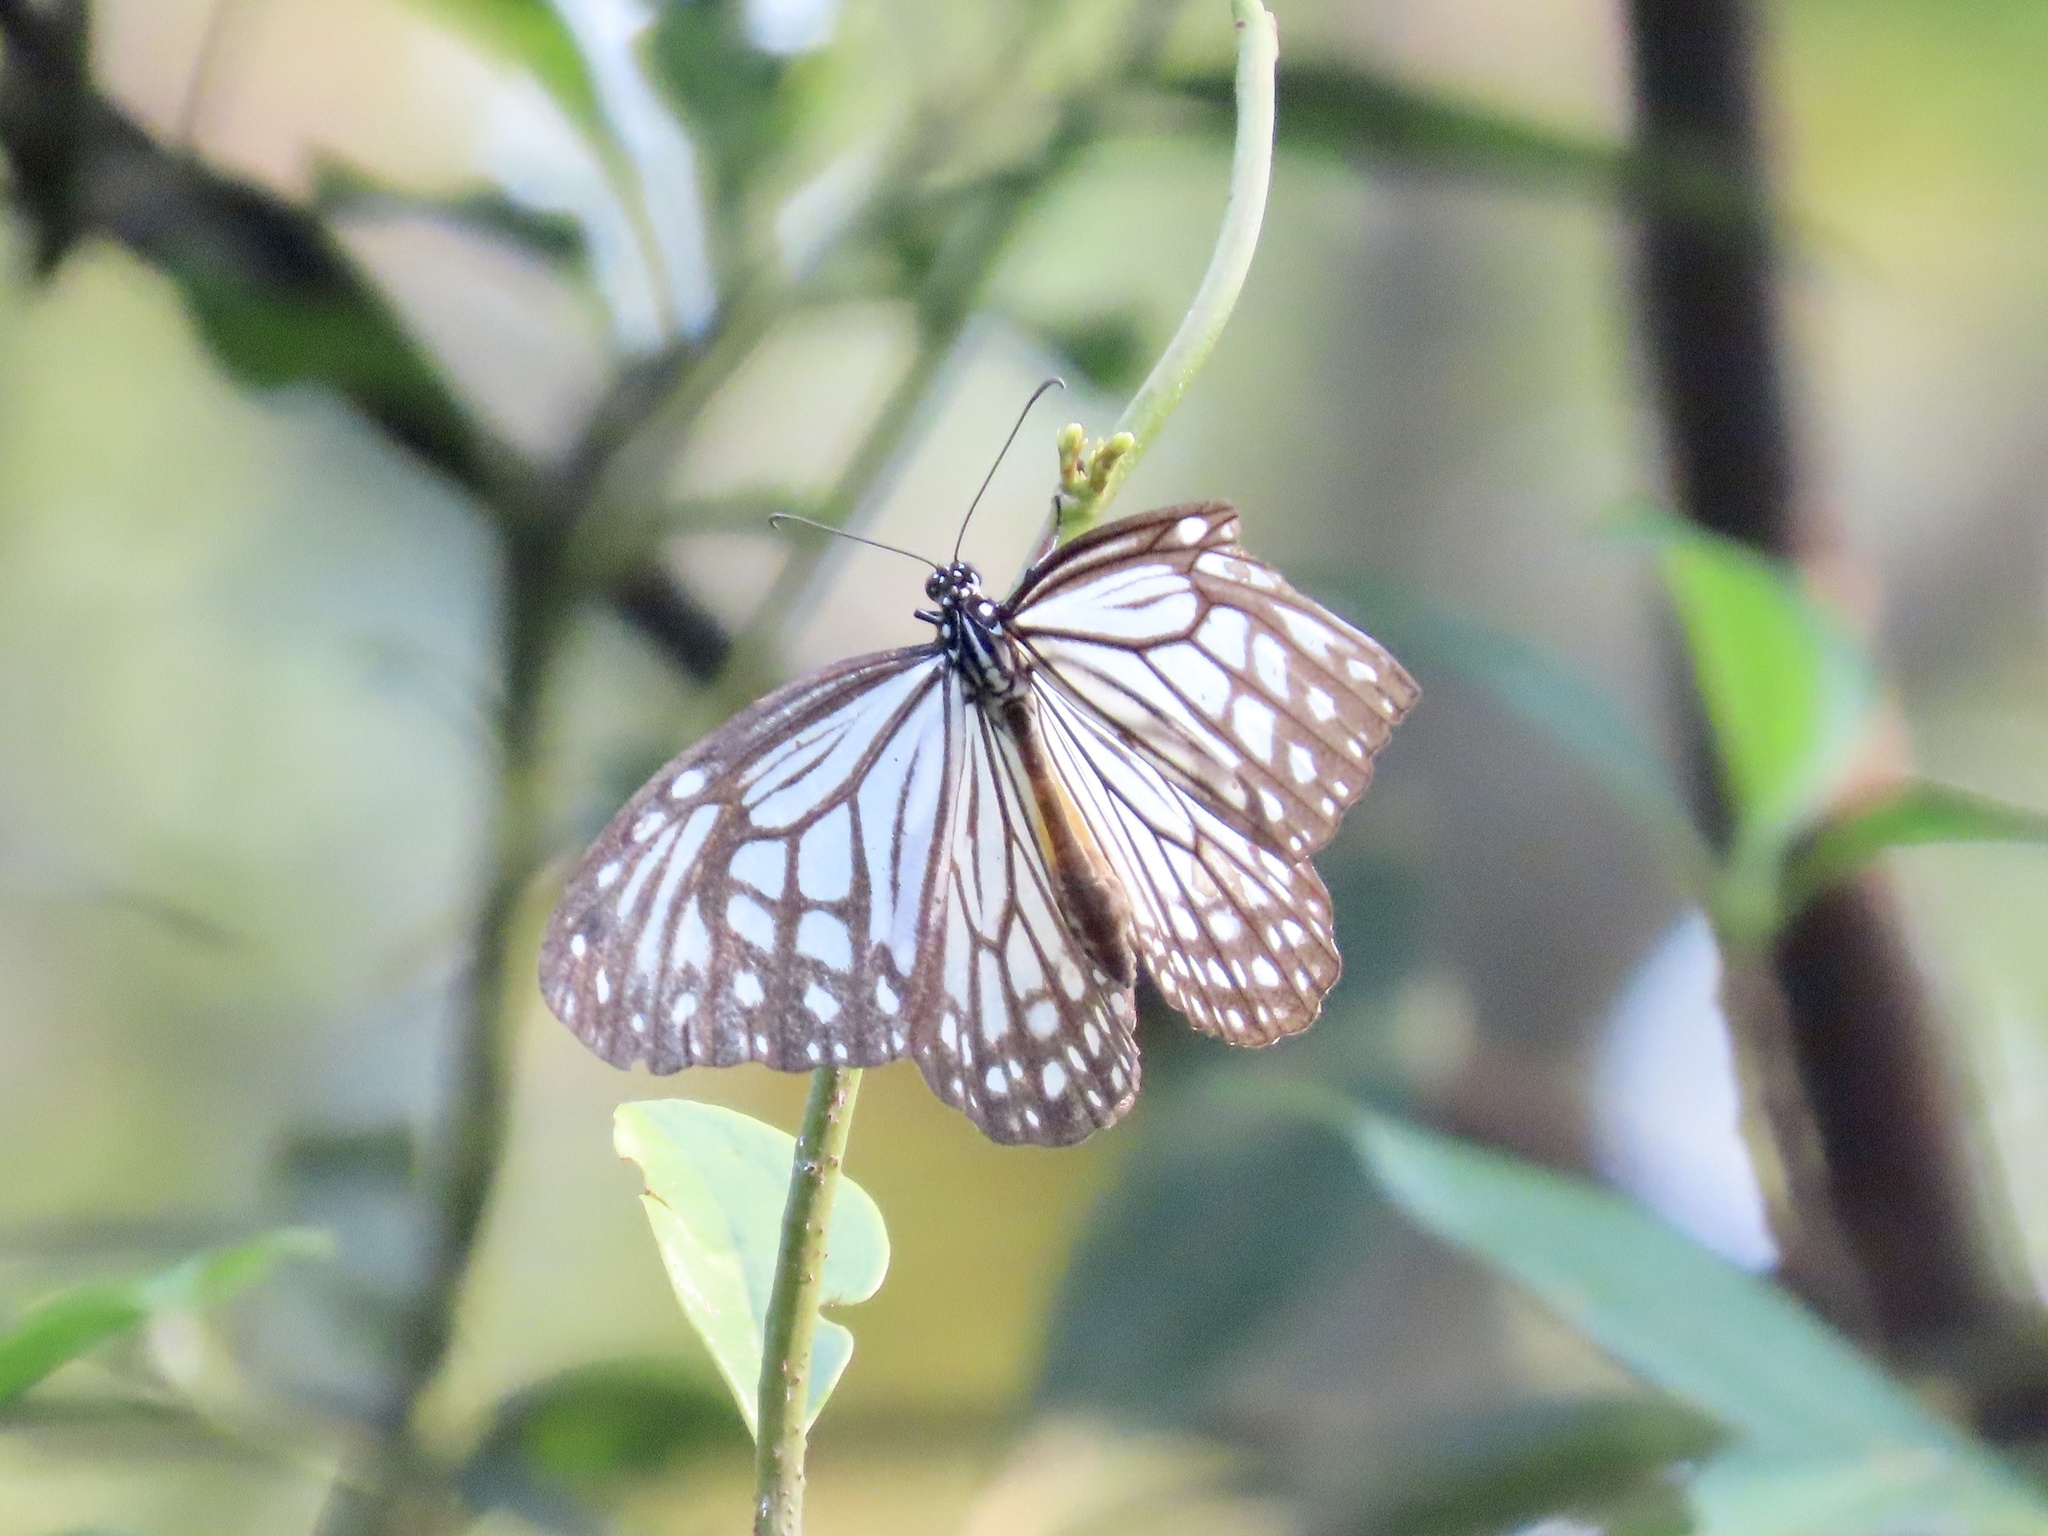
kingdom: Animalia
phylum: Arthropoda
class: Insecta
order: Lepidoptera
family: Nymphalidae
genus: Parantica
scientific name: Parantica aglea
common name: Glassy tiger
